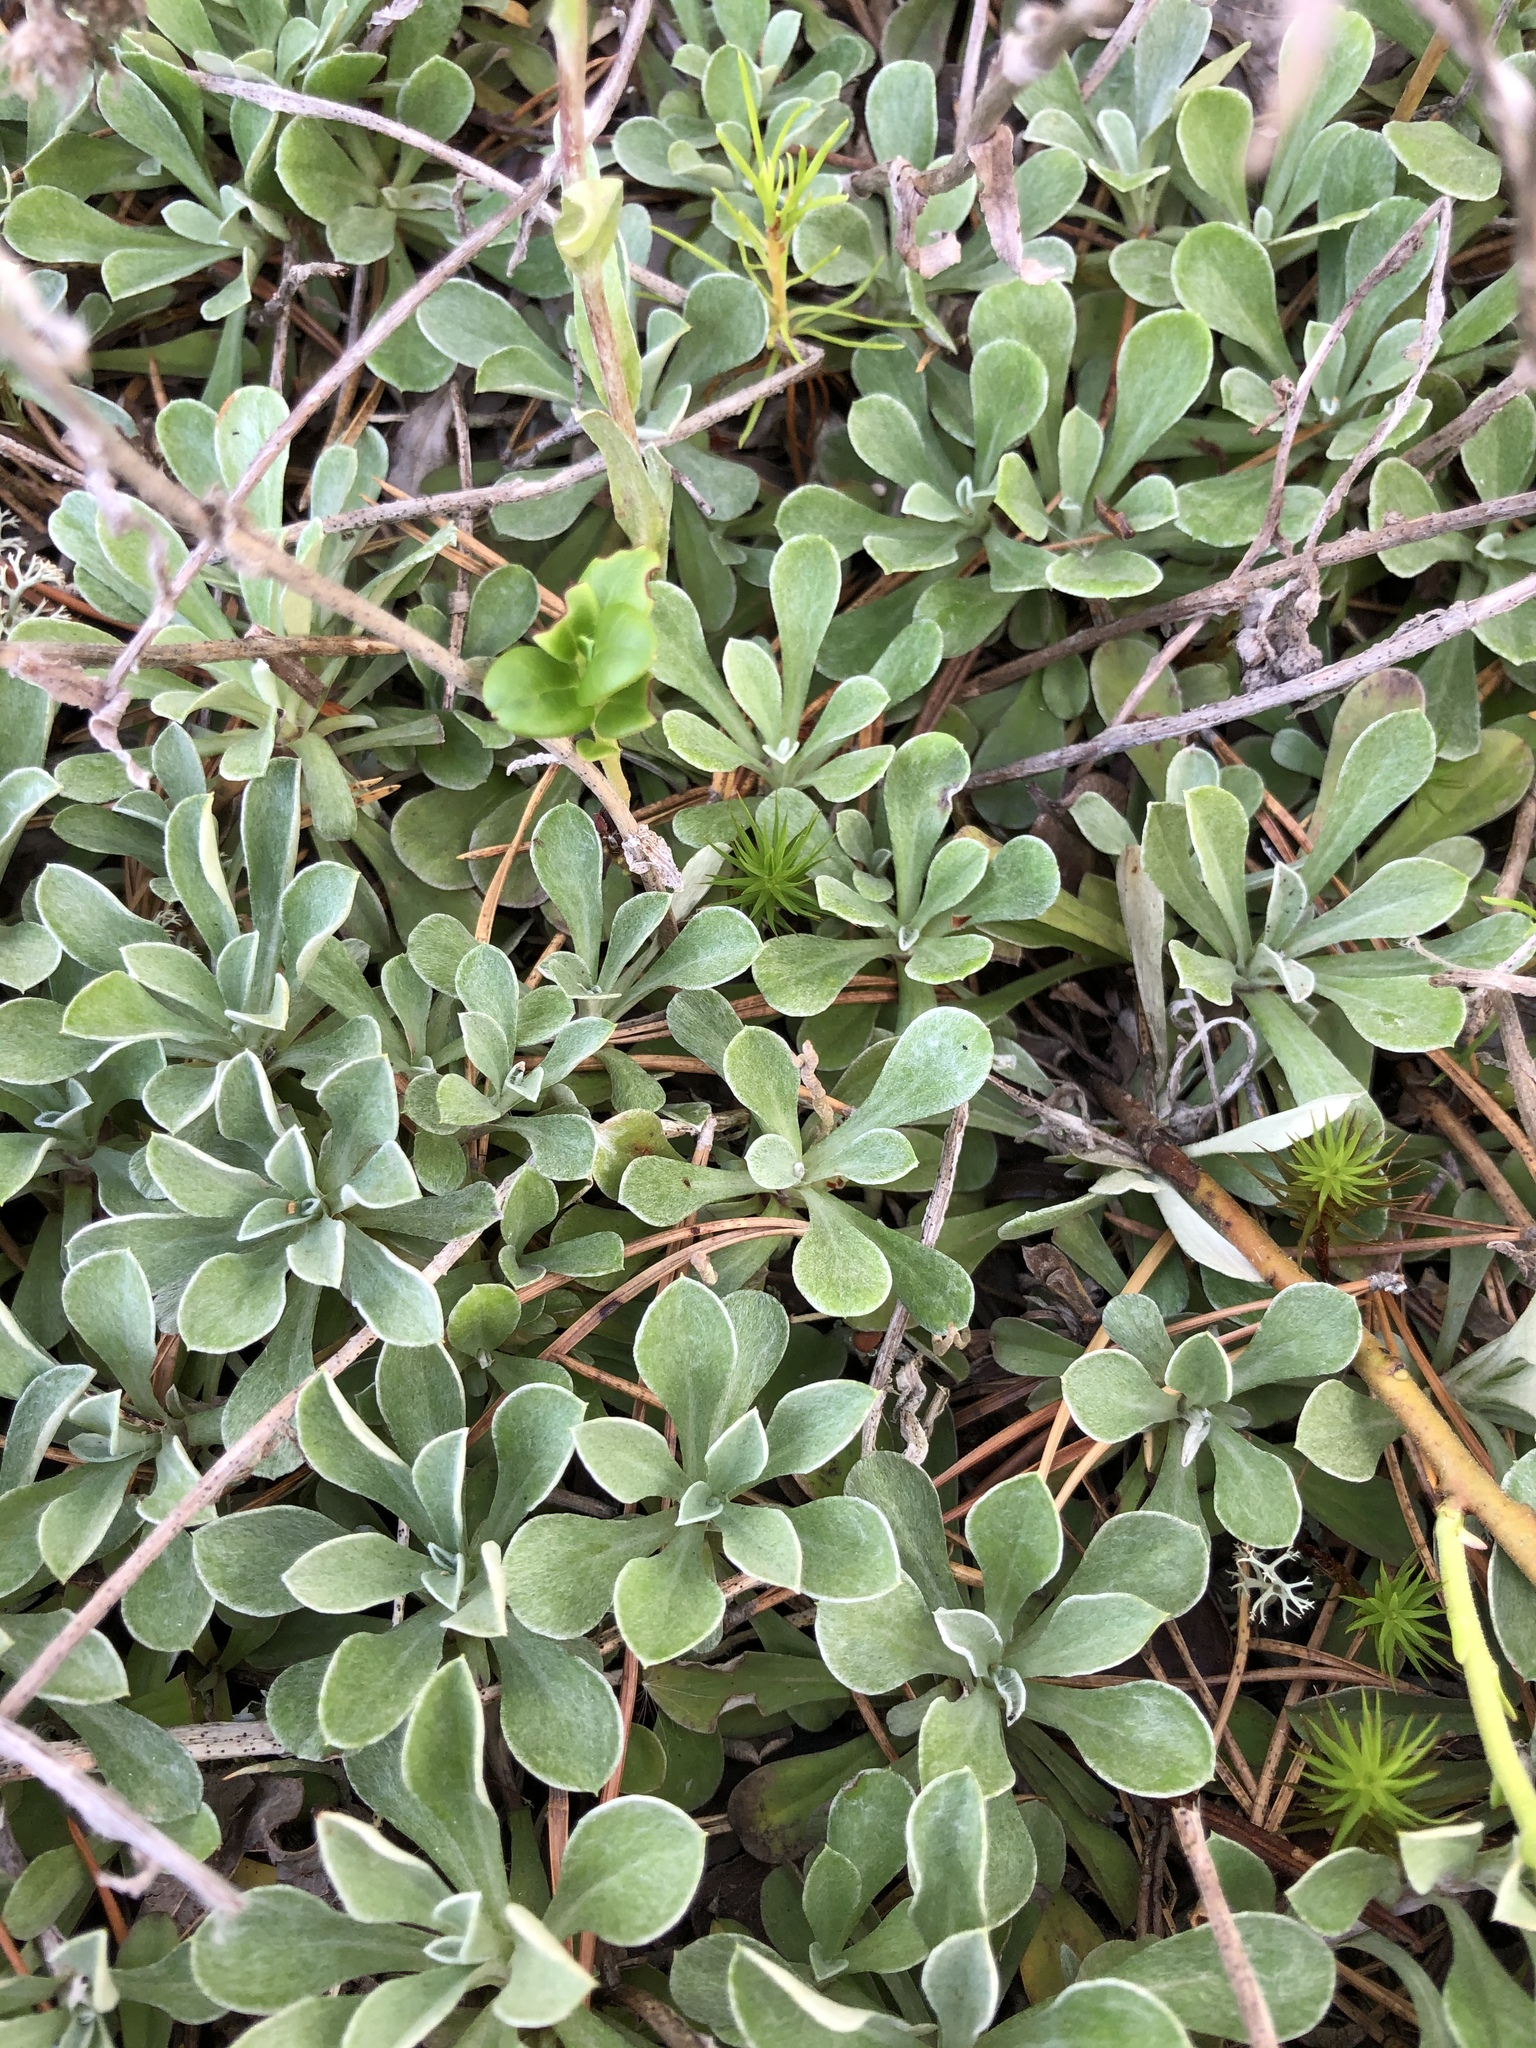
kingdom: Plantae
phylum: Tracheophyta
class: Magnoliopsida
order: Asterales
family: Asteraceae
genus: Antennaria
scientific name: Antennaria dioica
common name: Mountain everlasting
